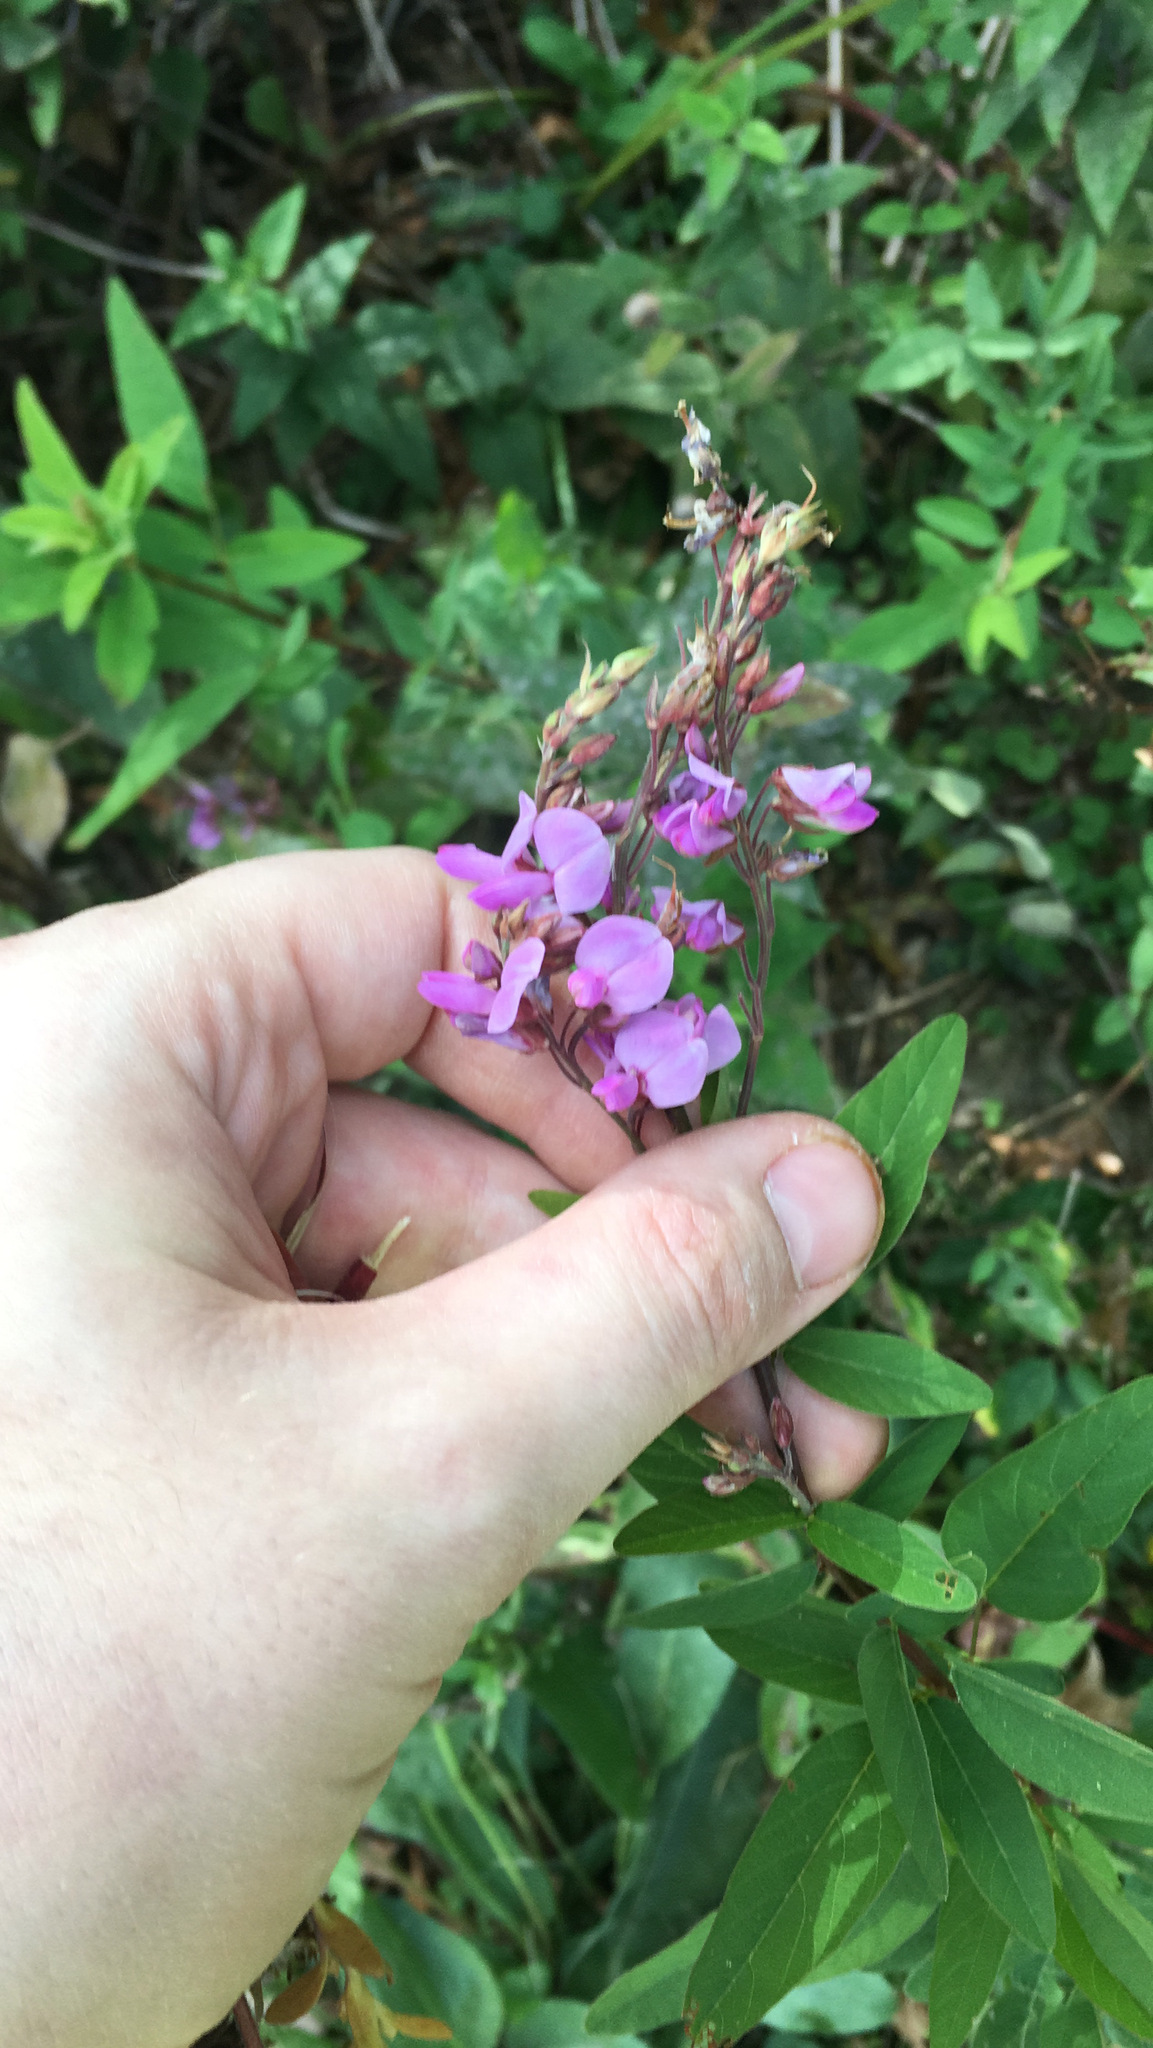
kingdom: Plantae
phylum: Tracheophyta
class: Magnoliopsida
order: Fabales
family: Fabaceae
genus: Desmodium
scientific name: Desmodium canadense
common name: Canada tick-trefoil
